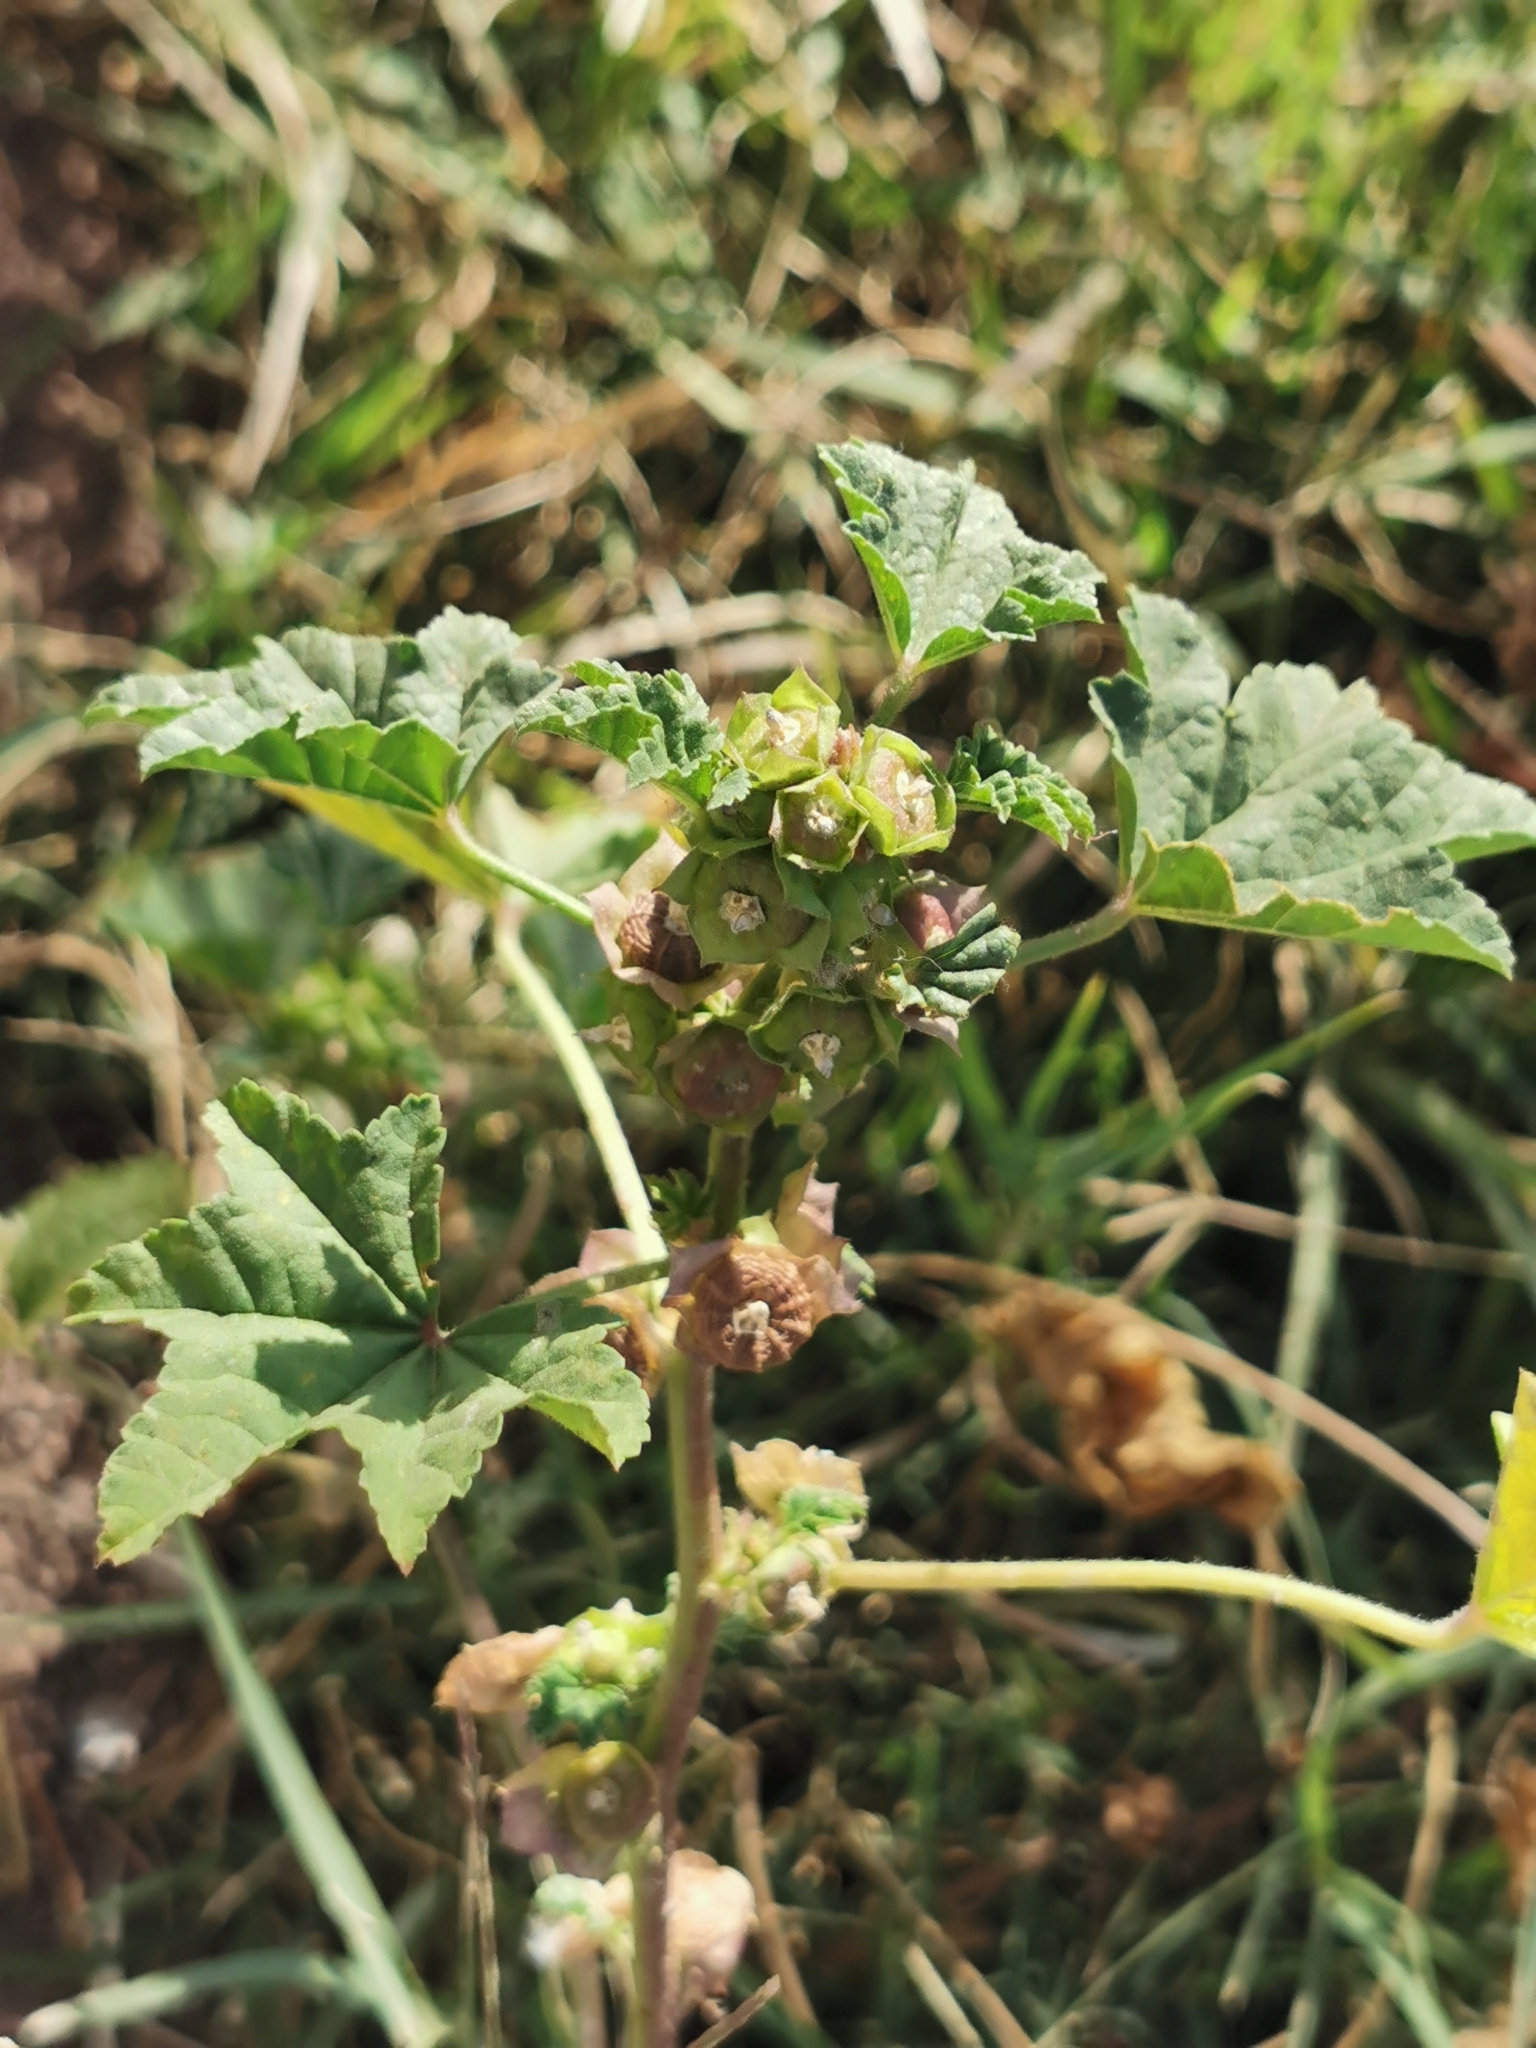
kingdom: Plantae
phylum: Tracheophyta
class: Magnoliopsida
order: Malvales
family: Malvaceae
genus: Malva
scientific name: Malva parviflora
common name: Least mallow
